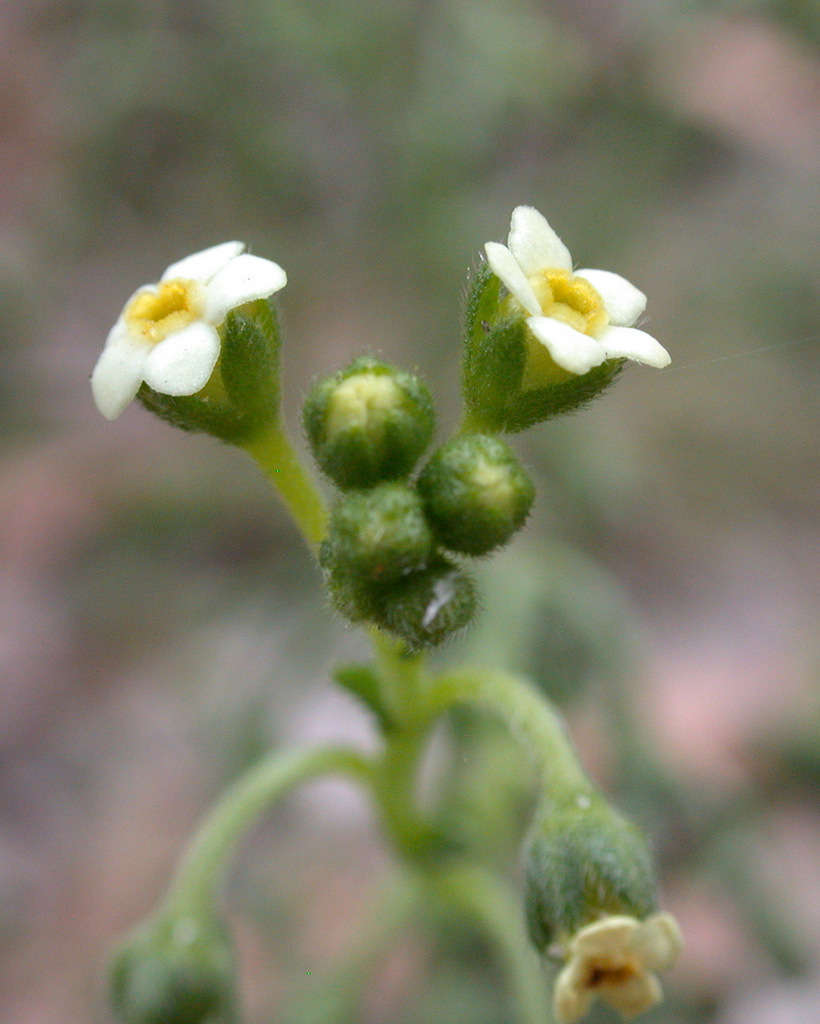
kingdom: Plantae
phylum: Tracheophyta
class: Magnoliopsida
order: Boraginales
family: Boraginaceae
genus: Hackelia
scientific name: Hackelia suaveolens
